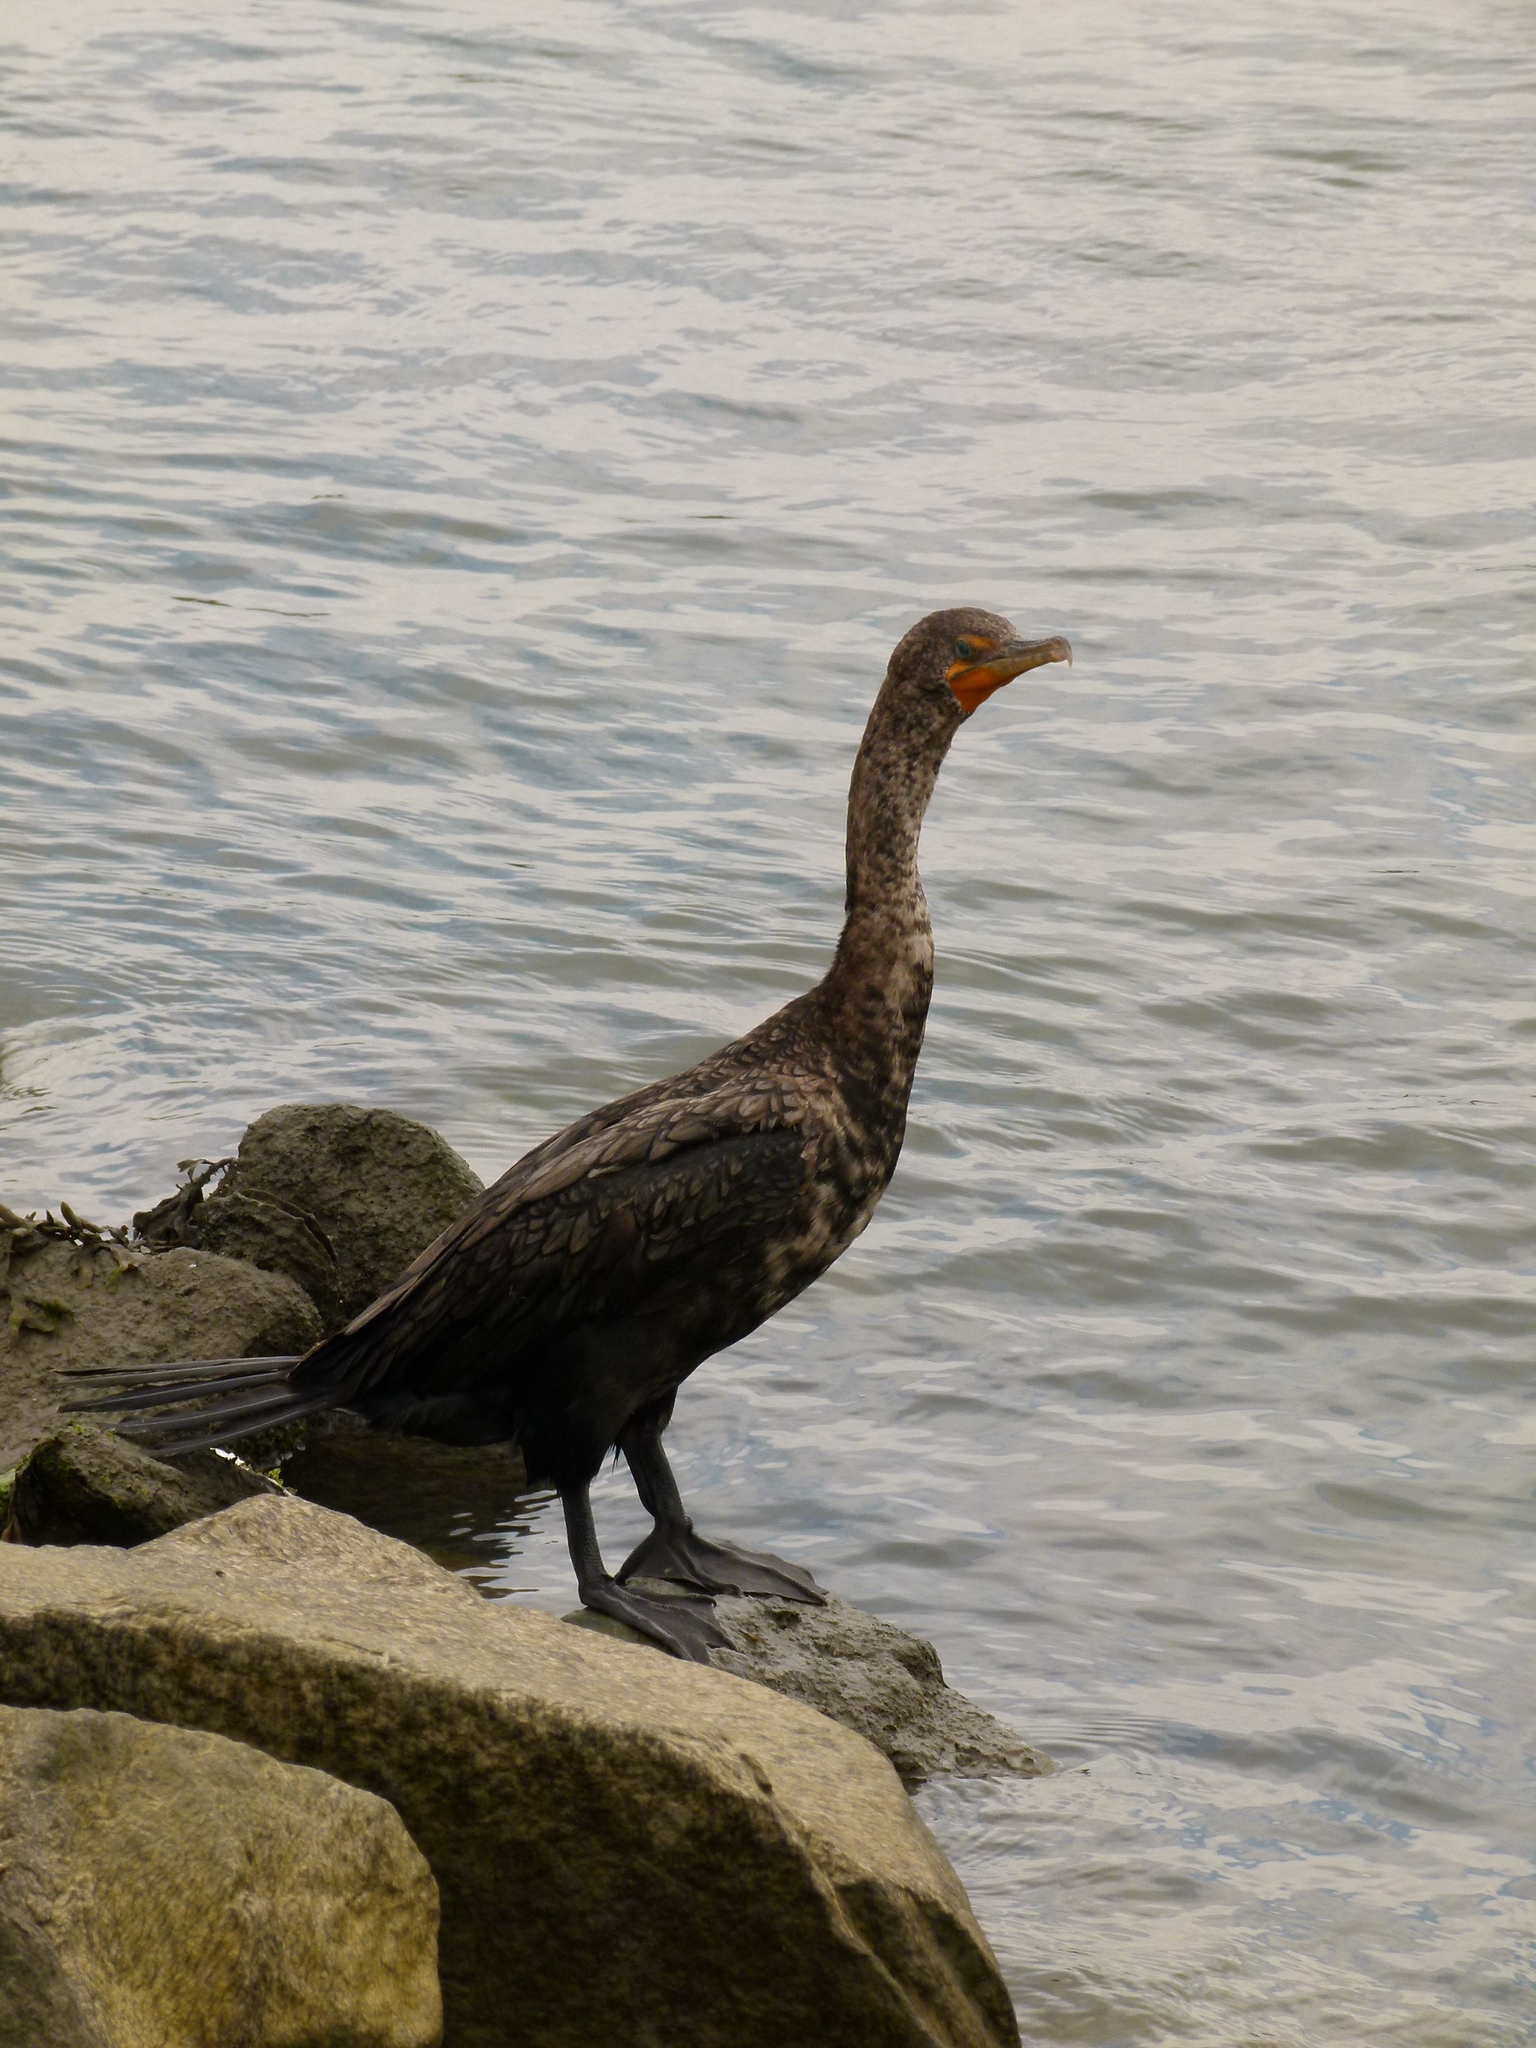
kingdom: Animalia
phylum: Chordata
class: Aves
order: Suliformes
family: Phalacrocoracidae
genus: Phalacrocorax
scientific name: Phalacrocorax auritus
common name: Double-crested cormorant
